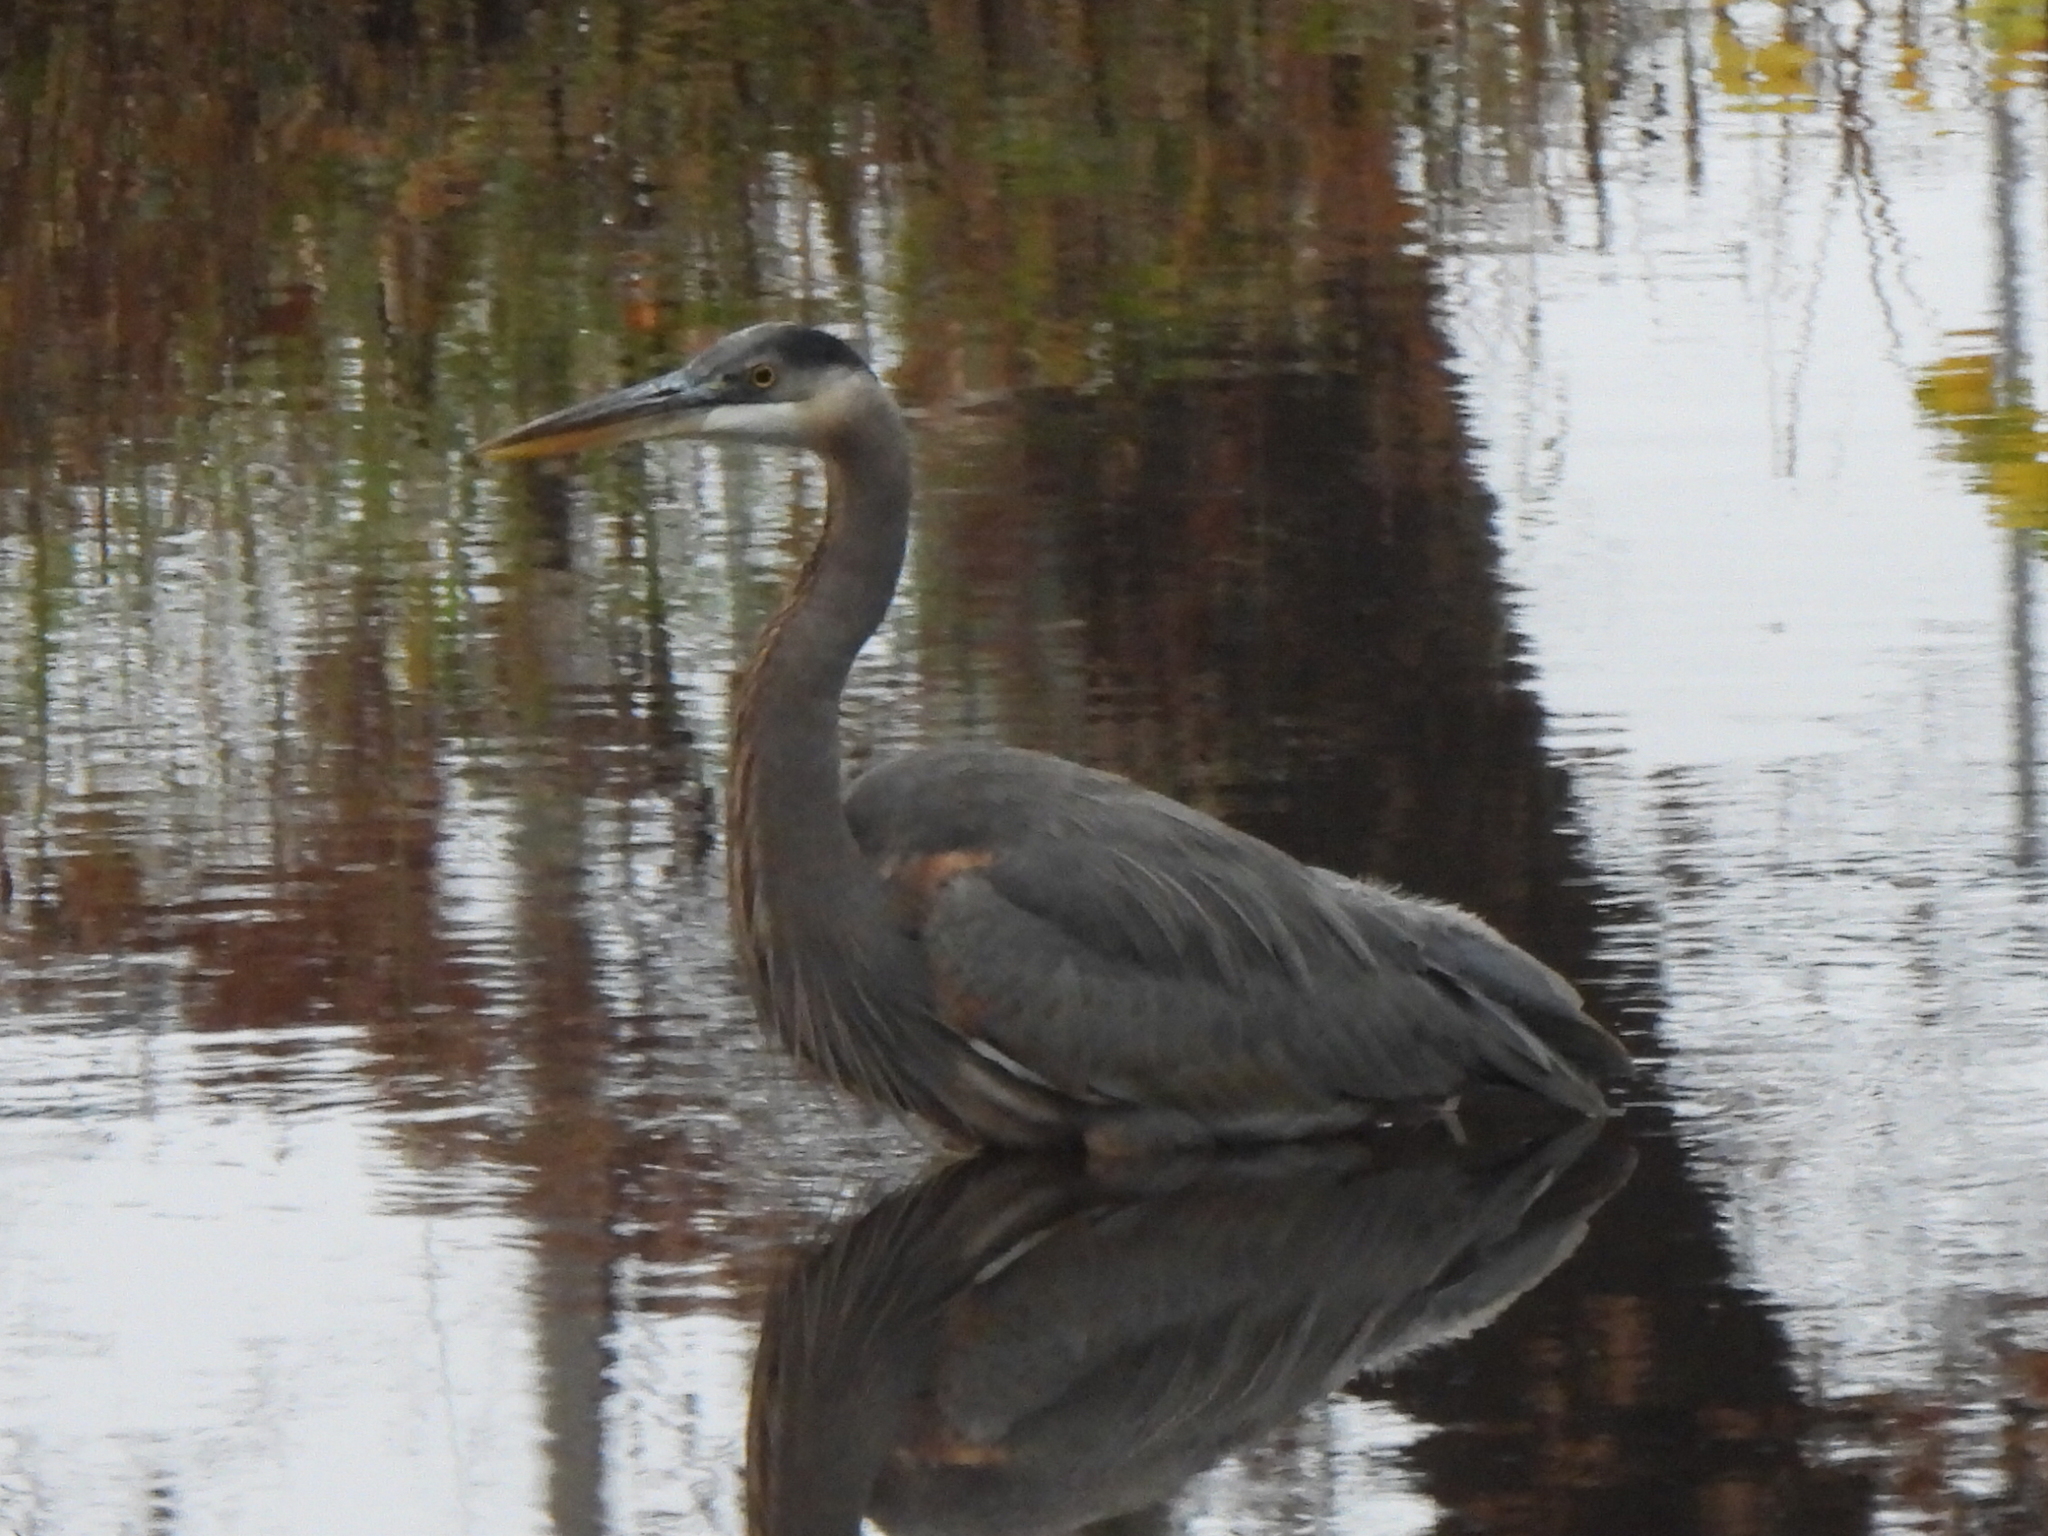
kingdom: Animalia
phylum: Chordata
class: Aves
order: Pelecaniformes
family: Ardeidae
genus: Ardea
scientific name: Ardea herodias
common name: Great blue heron
